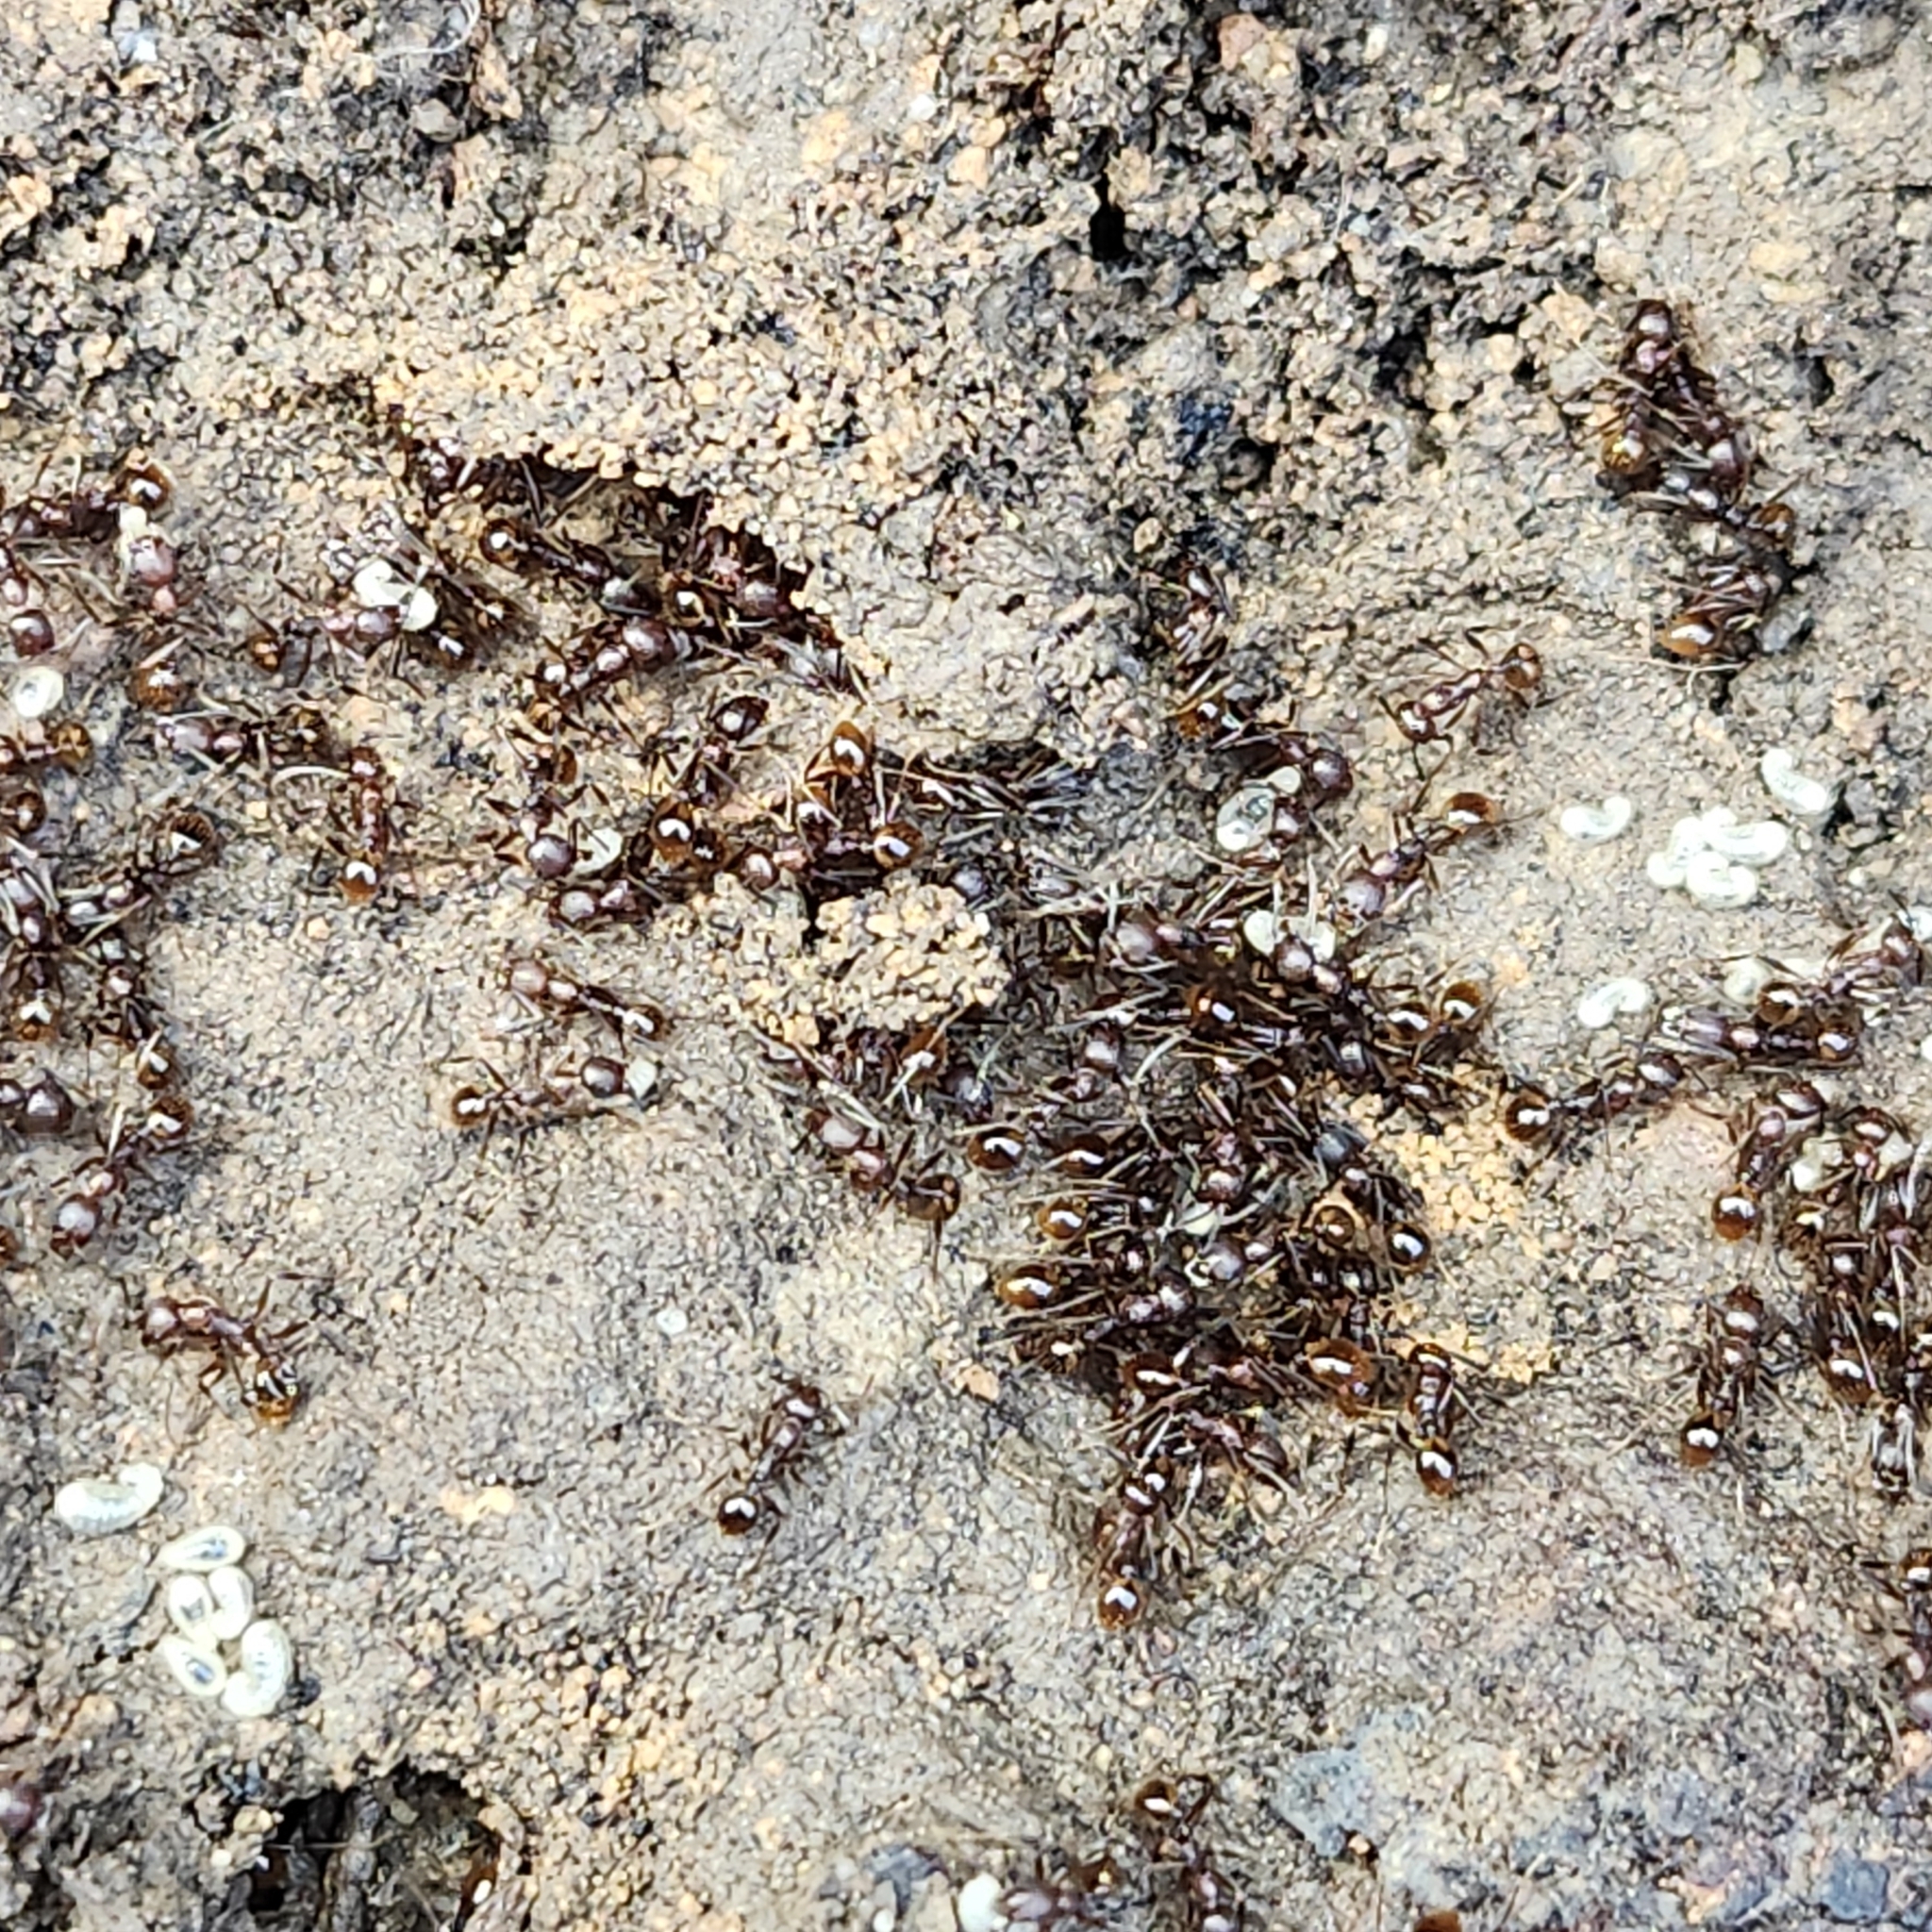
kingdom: Animalia
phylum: Arthropoda
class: Insecta
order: Hymenoptera
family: Formicidae
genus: Aphaenogaster
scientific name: Aphaenogaster fulva
